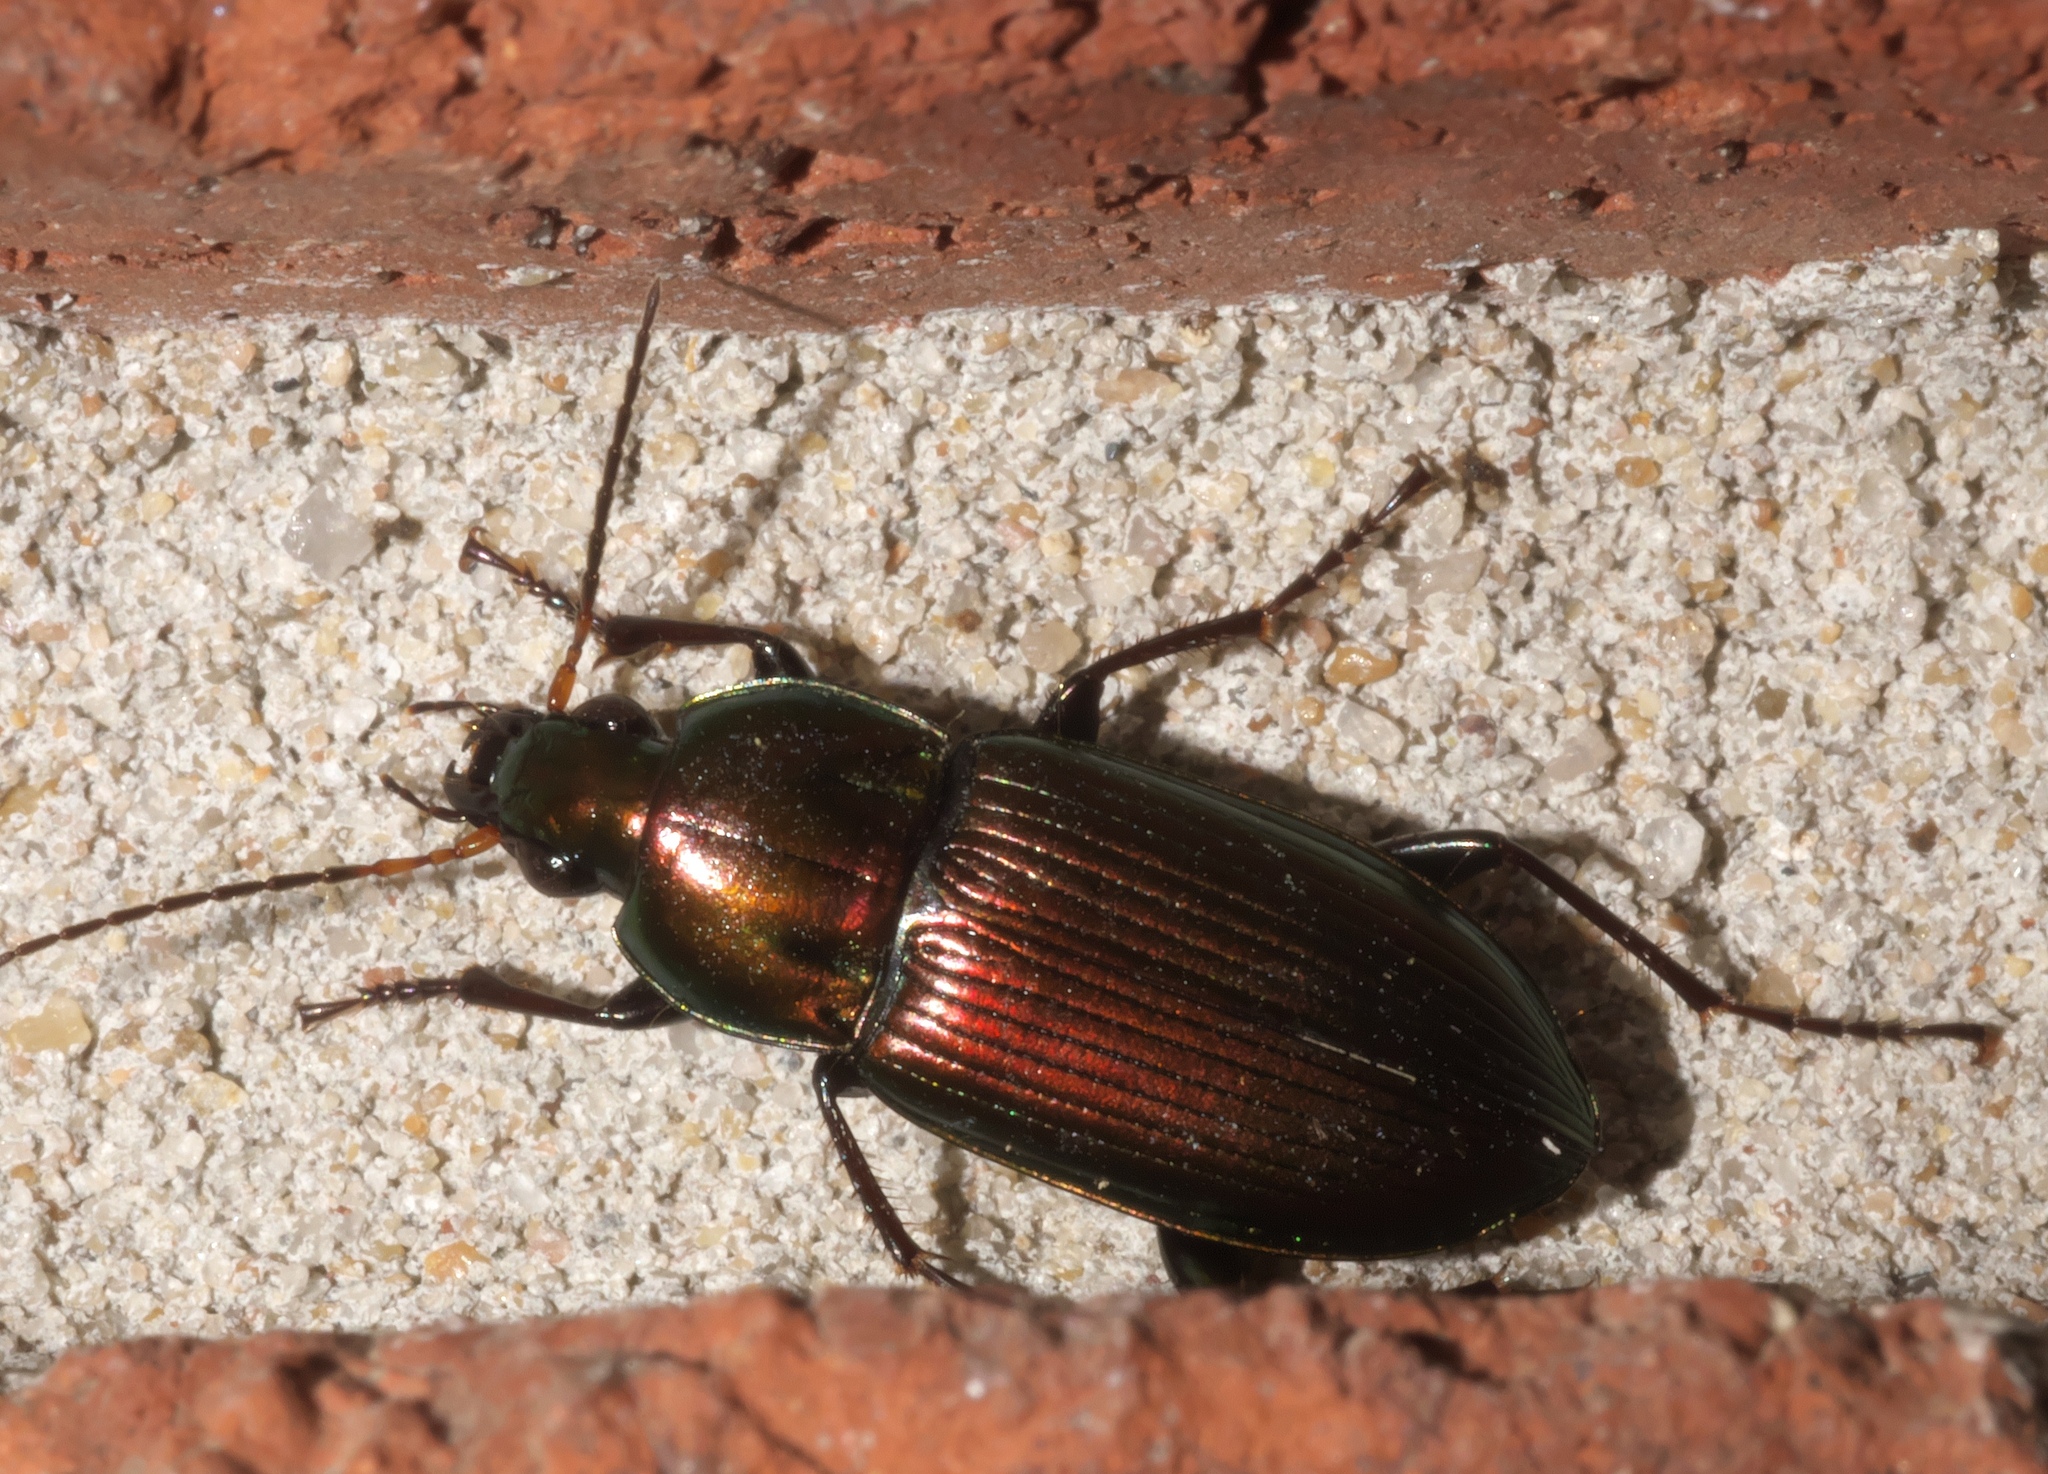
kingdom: Animalia
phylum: Arthropoda
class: Insecta
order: Coleoptera
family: Carabidae
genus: Poecilus
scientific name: Poecilus chalcites
